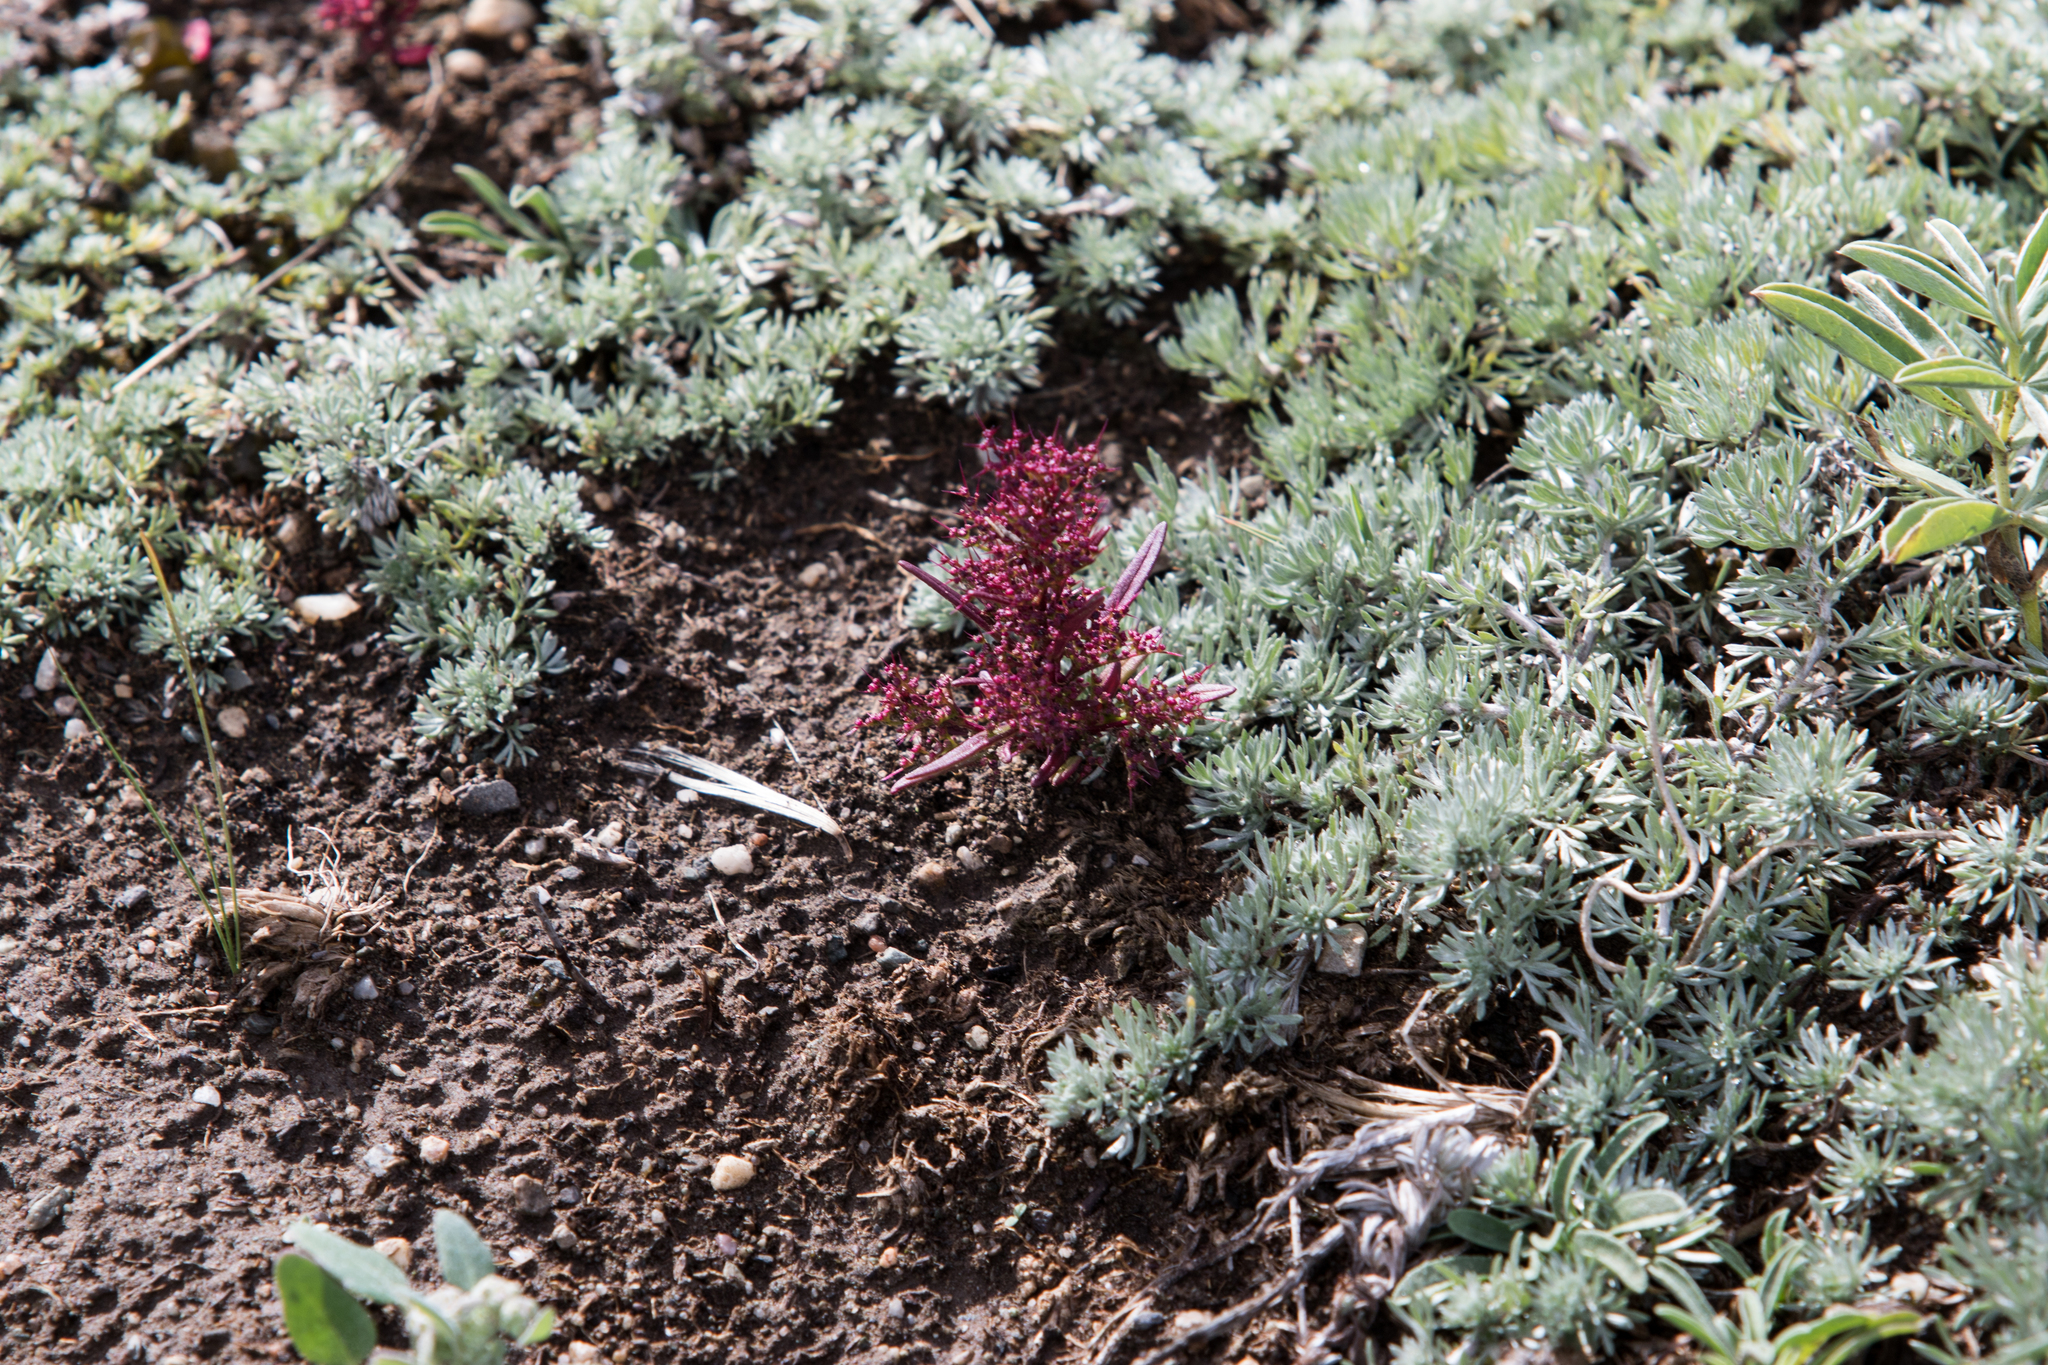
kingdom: Plantae
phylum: Tracheophyta
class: Magnoliopsida
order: Caryophyllales
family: Amaranthaceae
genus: Teloxys
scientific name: Teloxys aristata
